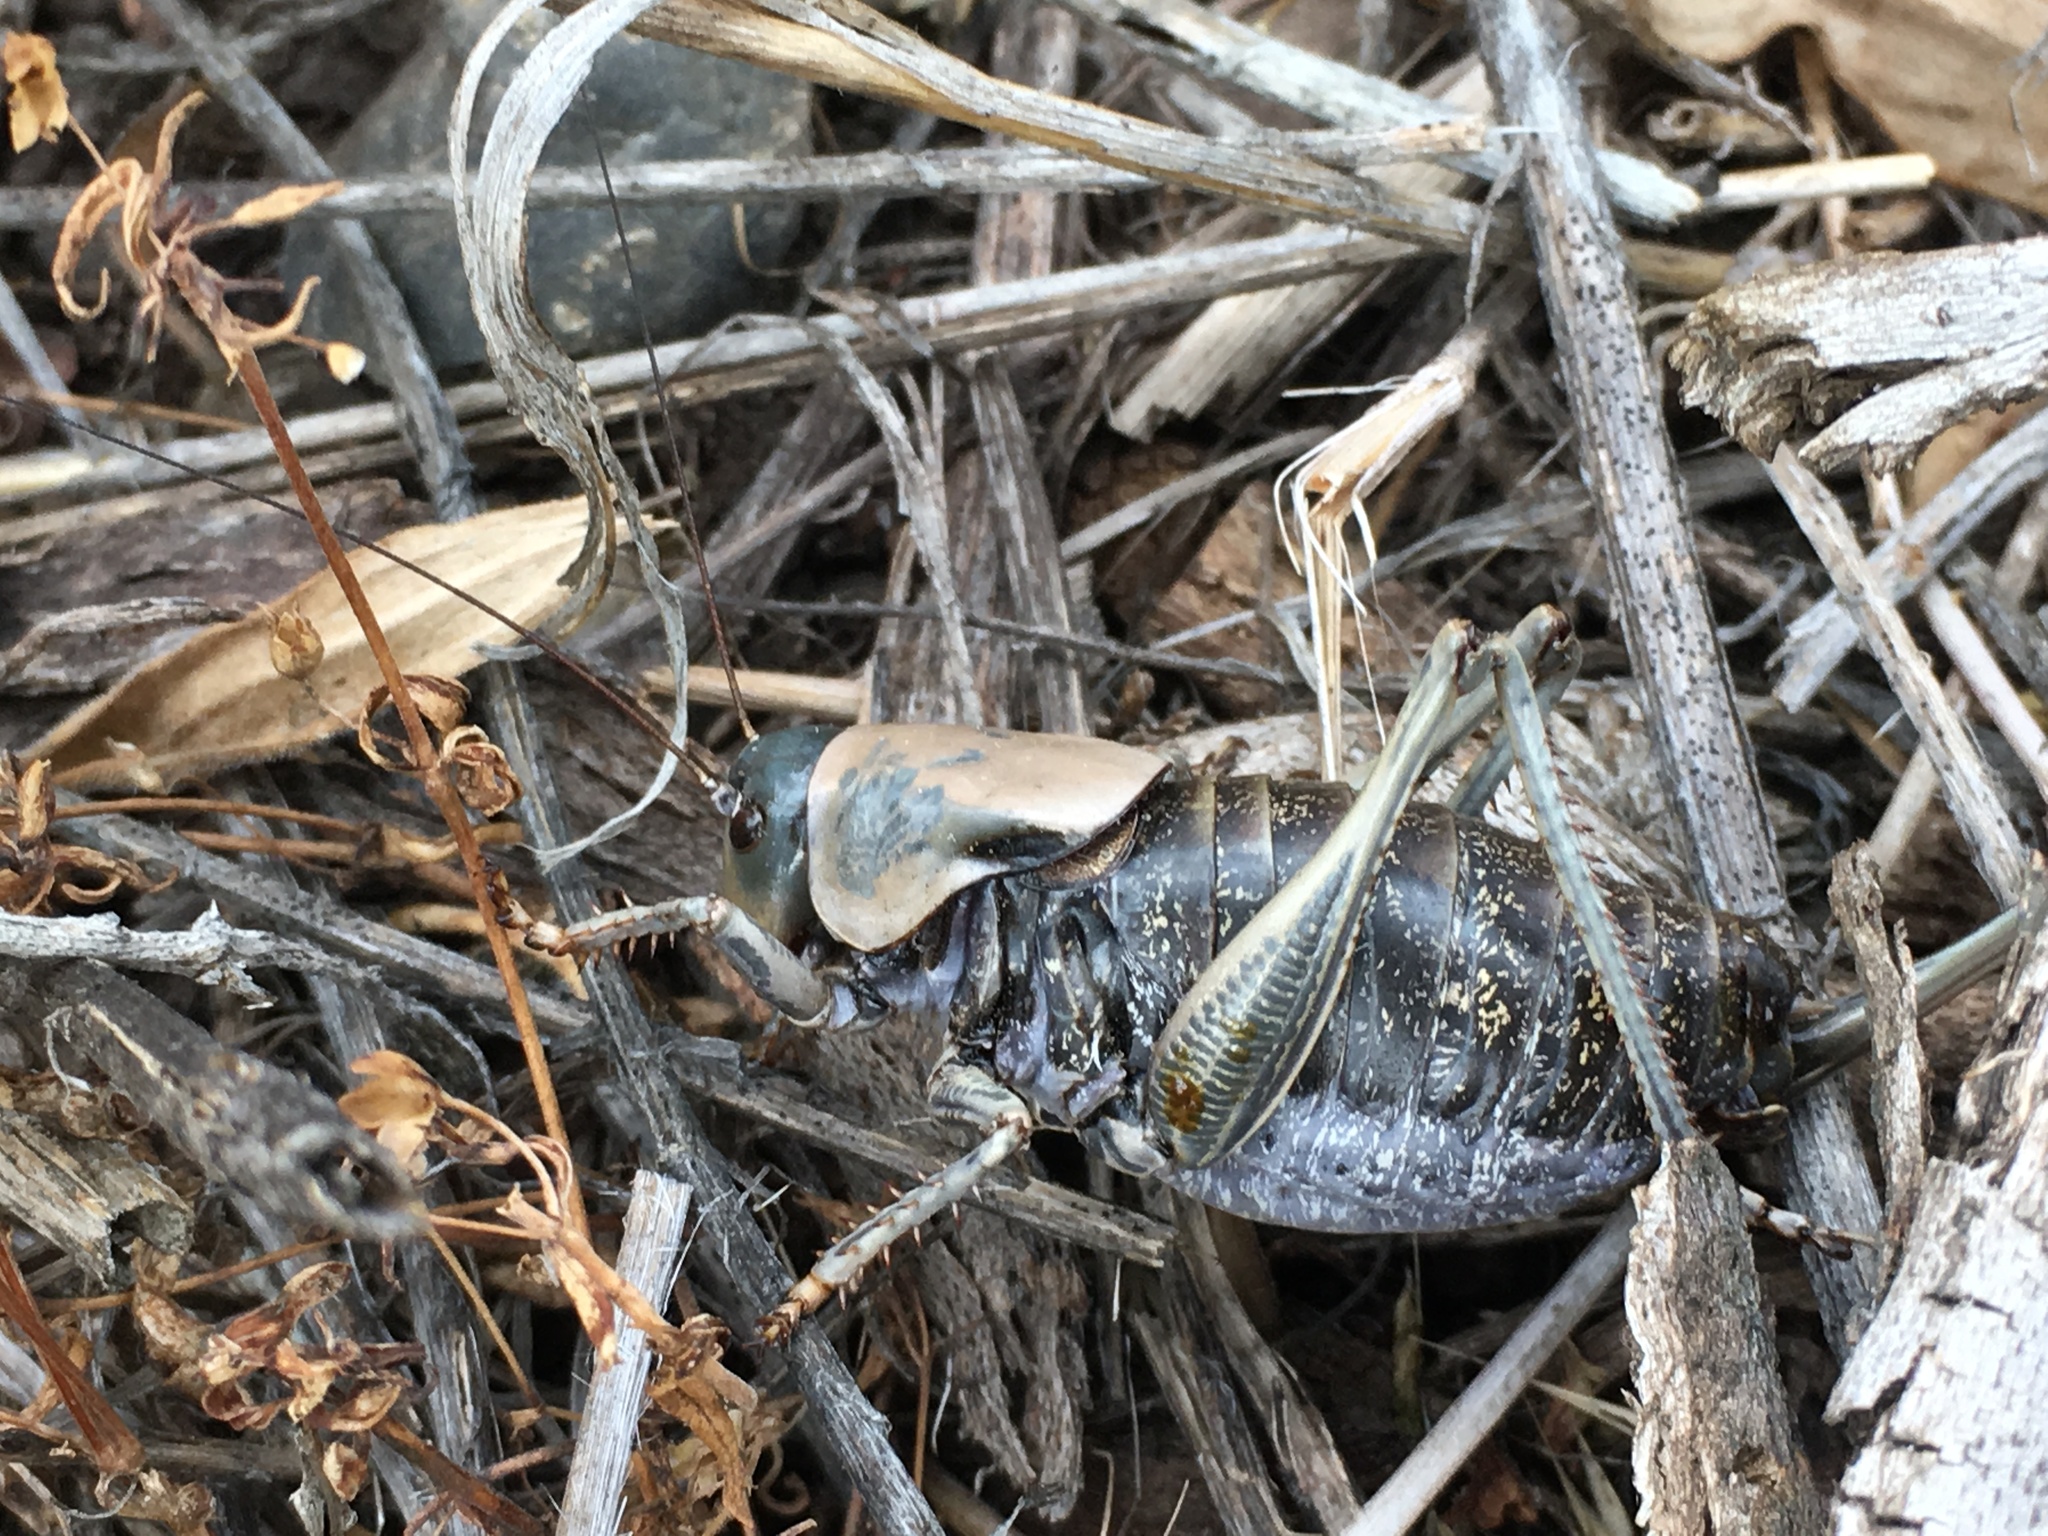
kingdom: Animalia
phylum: Arthropoda
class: Insecta
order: Orthoptera
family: Tettigoniidae
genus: Anabrus
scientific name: Anabrus simplex
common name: Mormon cricket
